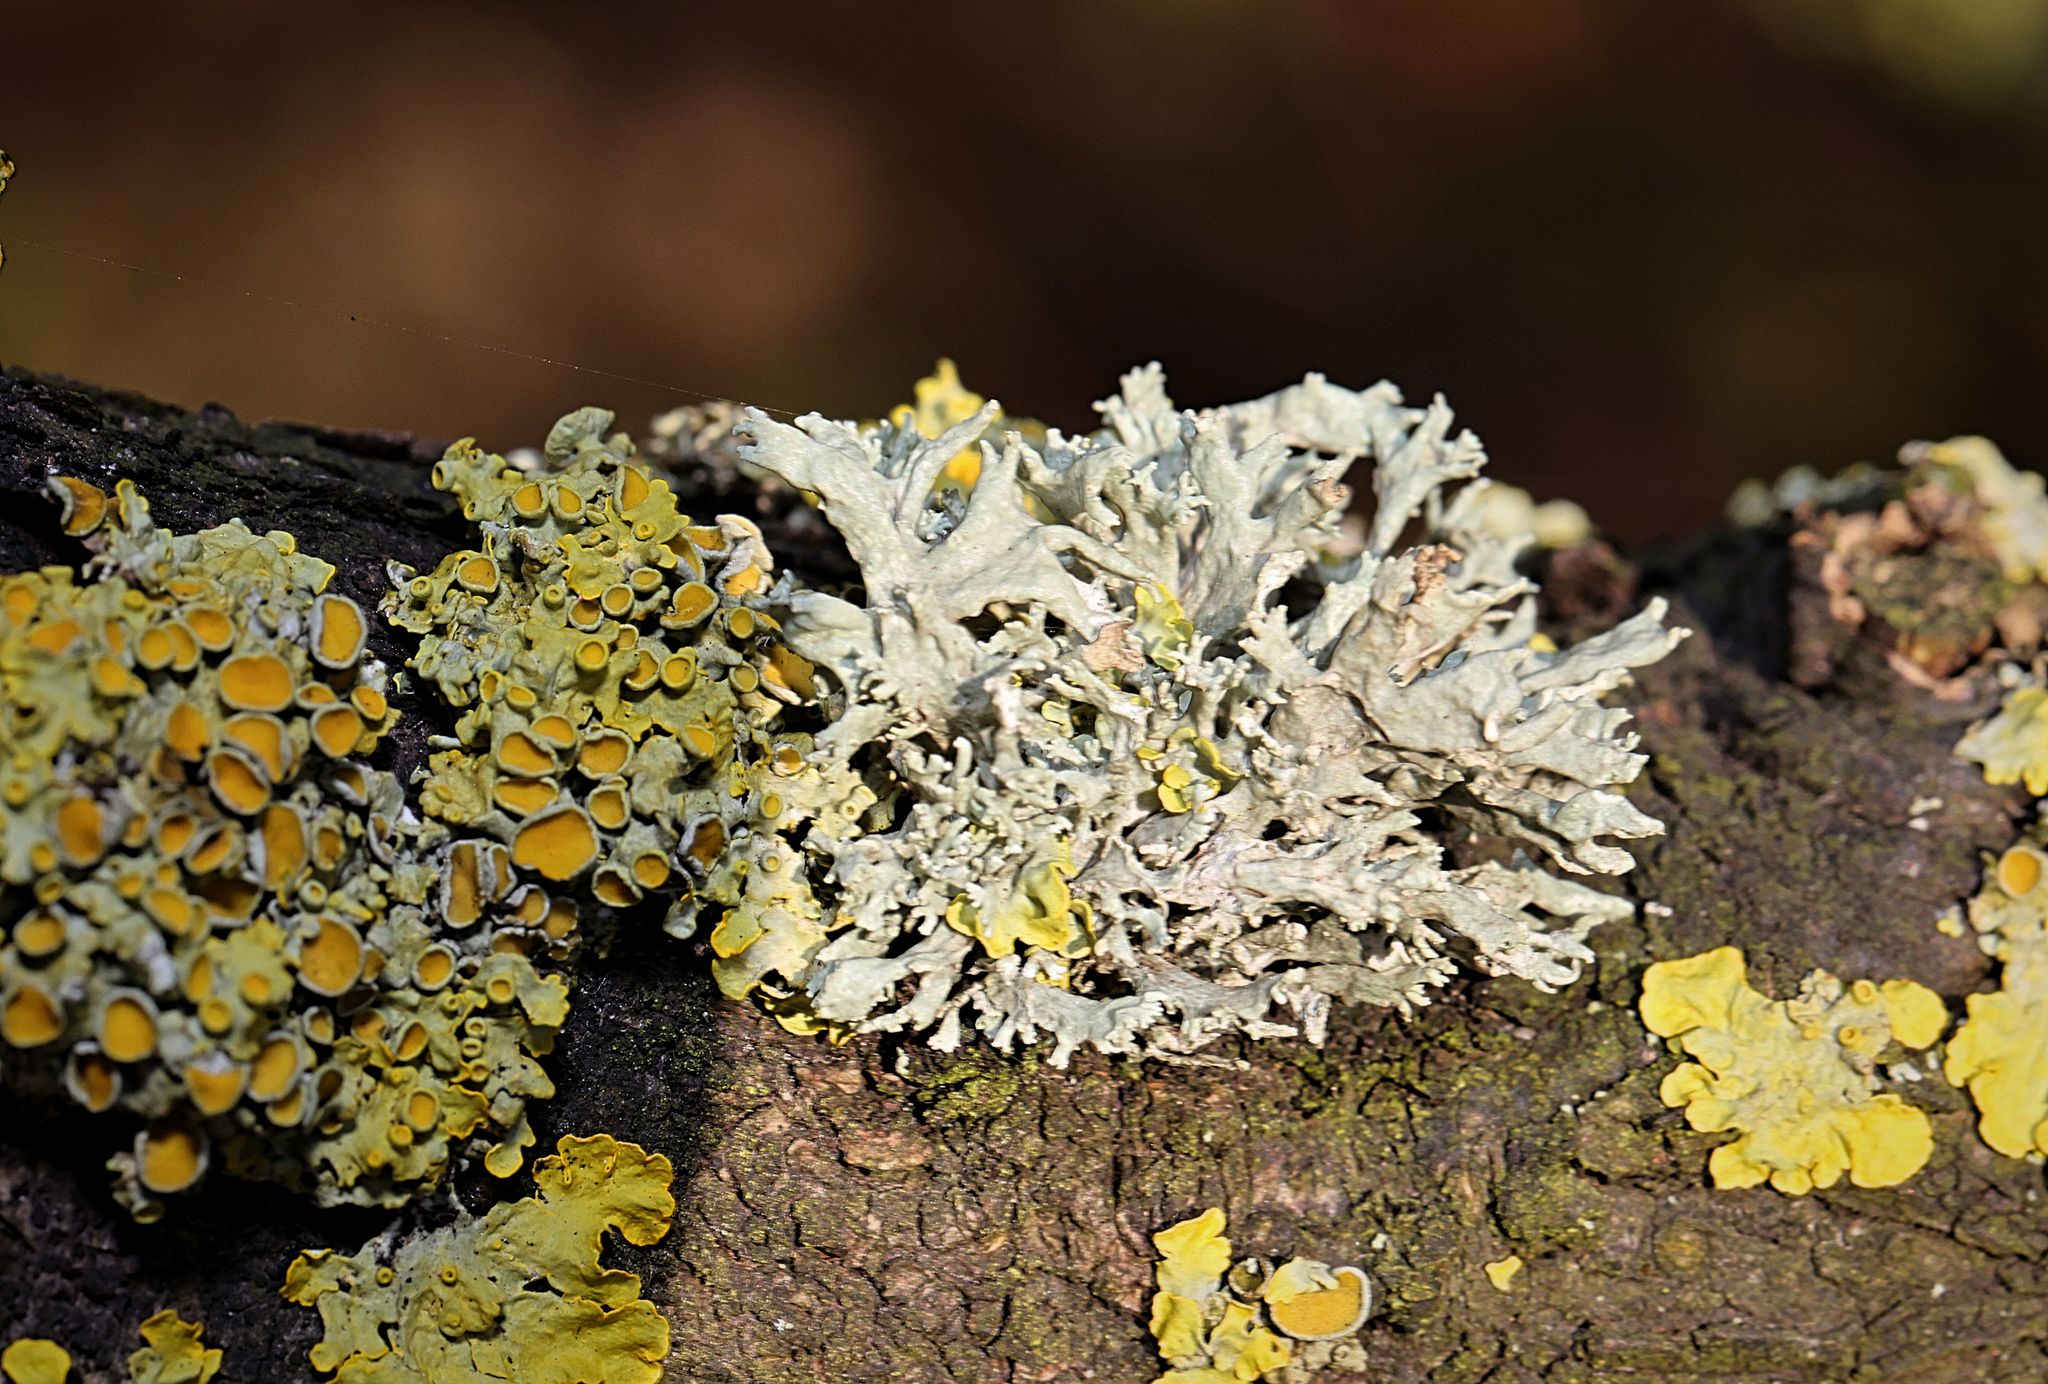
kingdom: Fungi
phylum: Ascomycota
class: Lecanoromycetes
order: Teloschistales
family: Teloschistaceae
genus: Xanthoria
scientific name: Xanthoria parietina
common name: Common orange lichen
